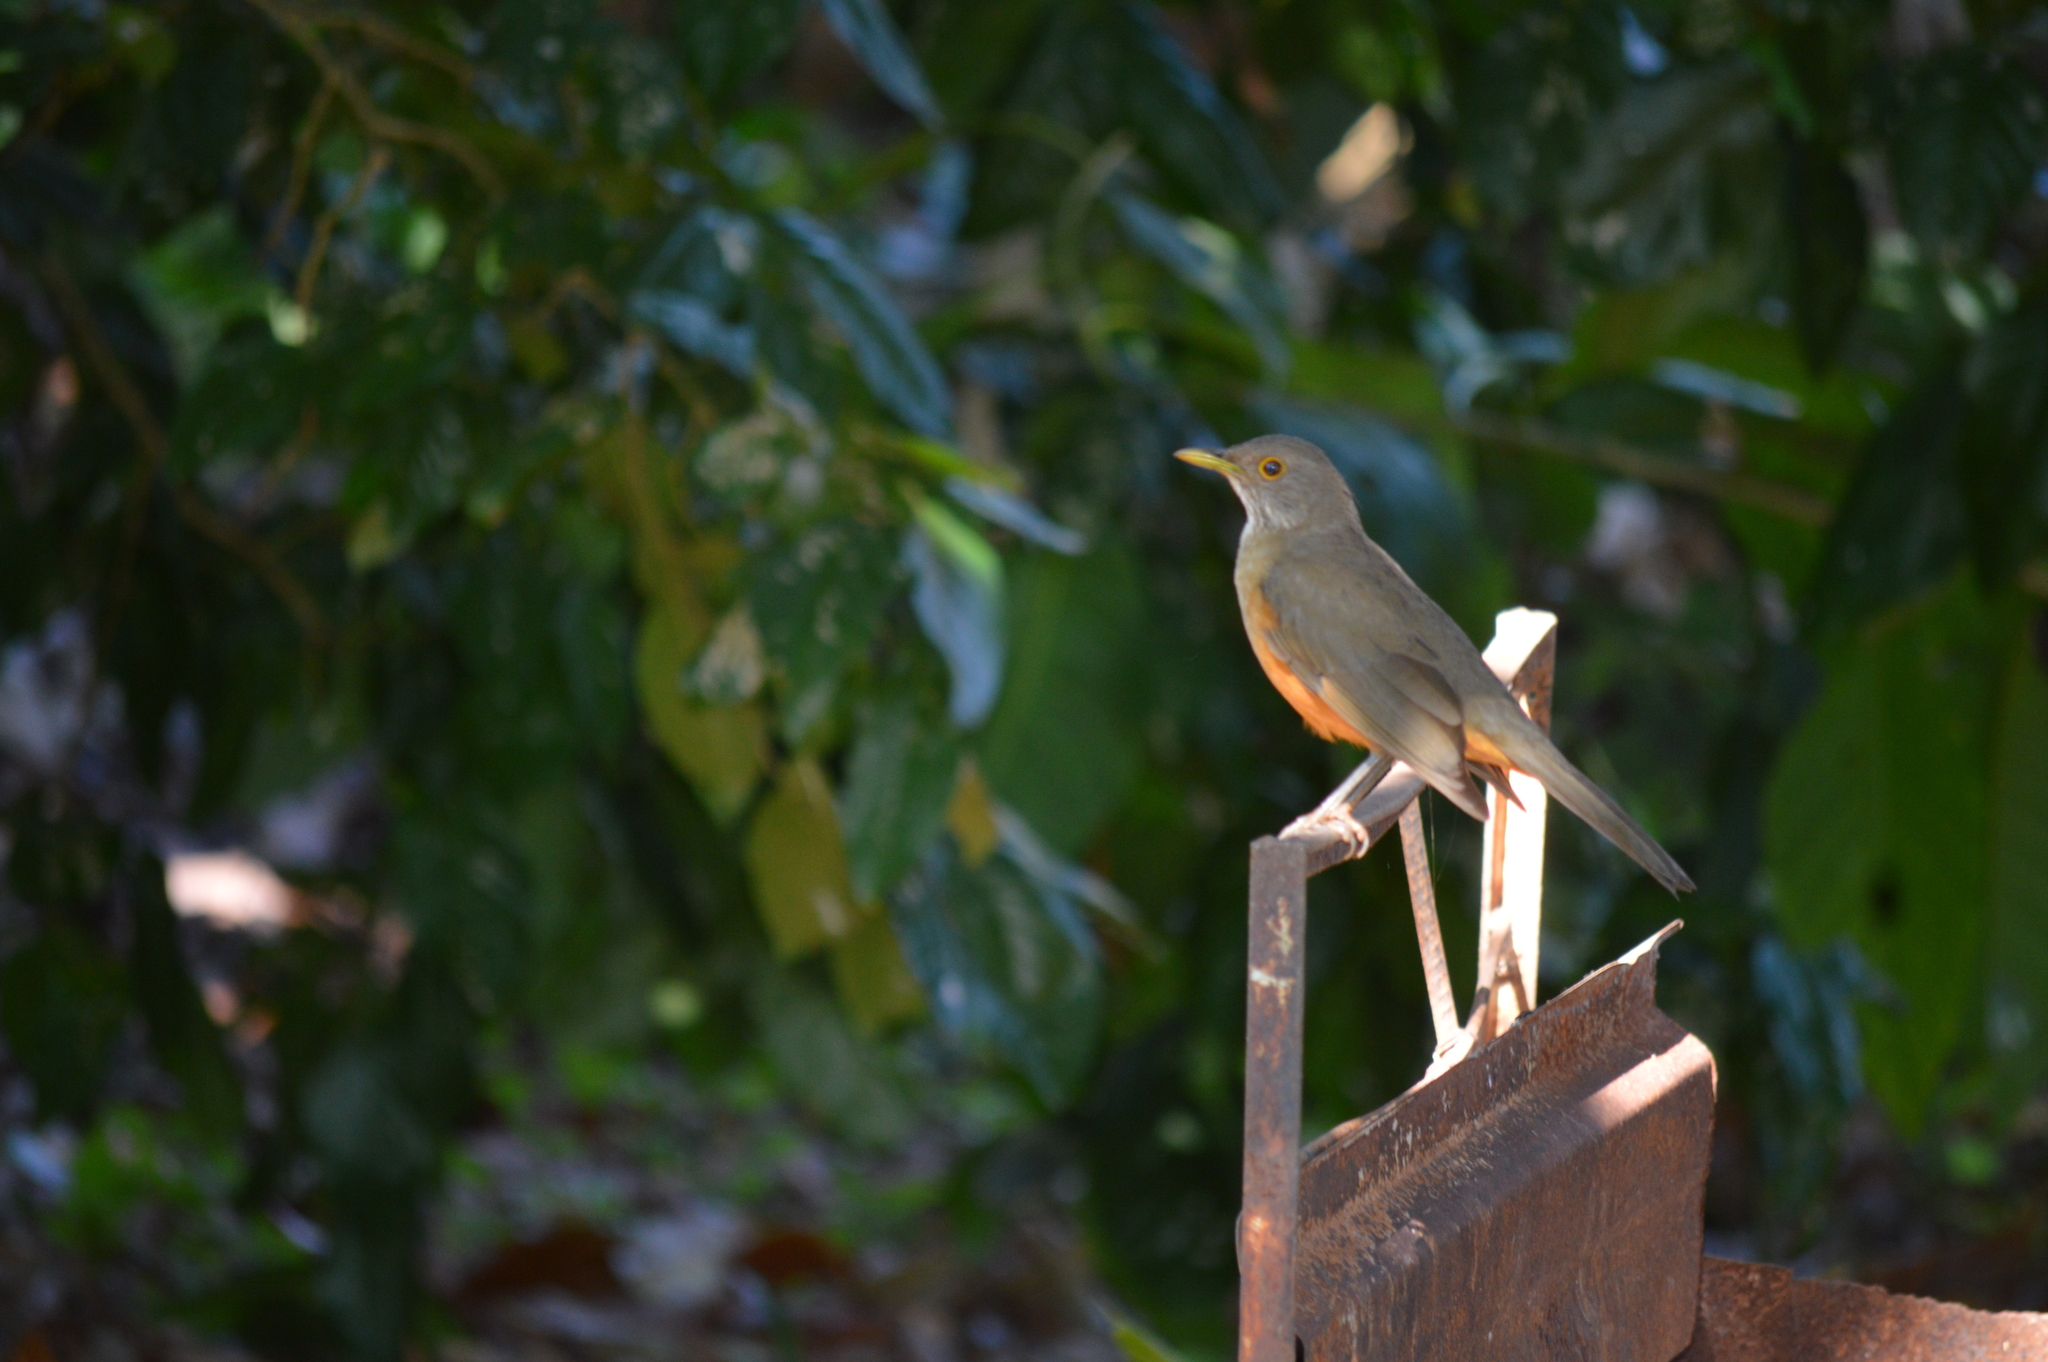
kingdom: Animalia
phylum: Chordata
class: Aves
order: Passeriformes
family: Turdidae
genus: Turdus
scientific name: Turdus rufiventris
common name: Rufous-bellied thrush
